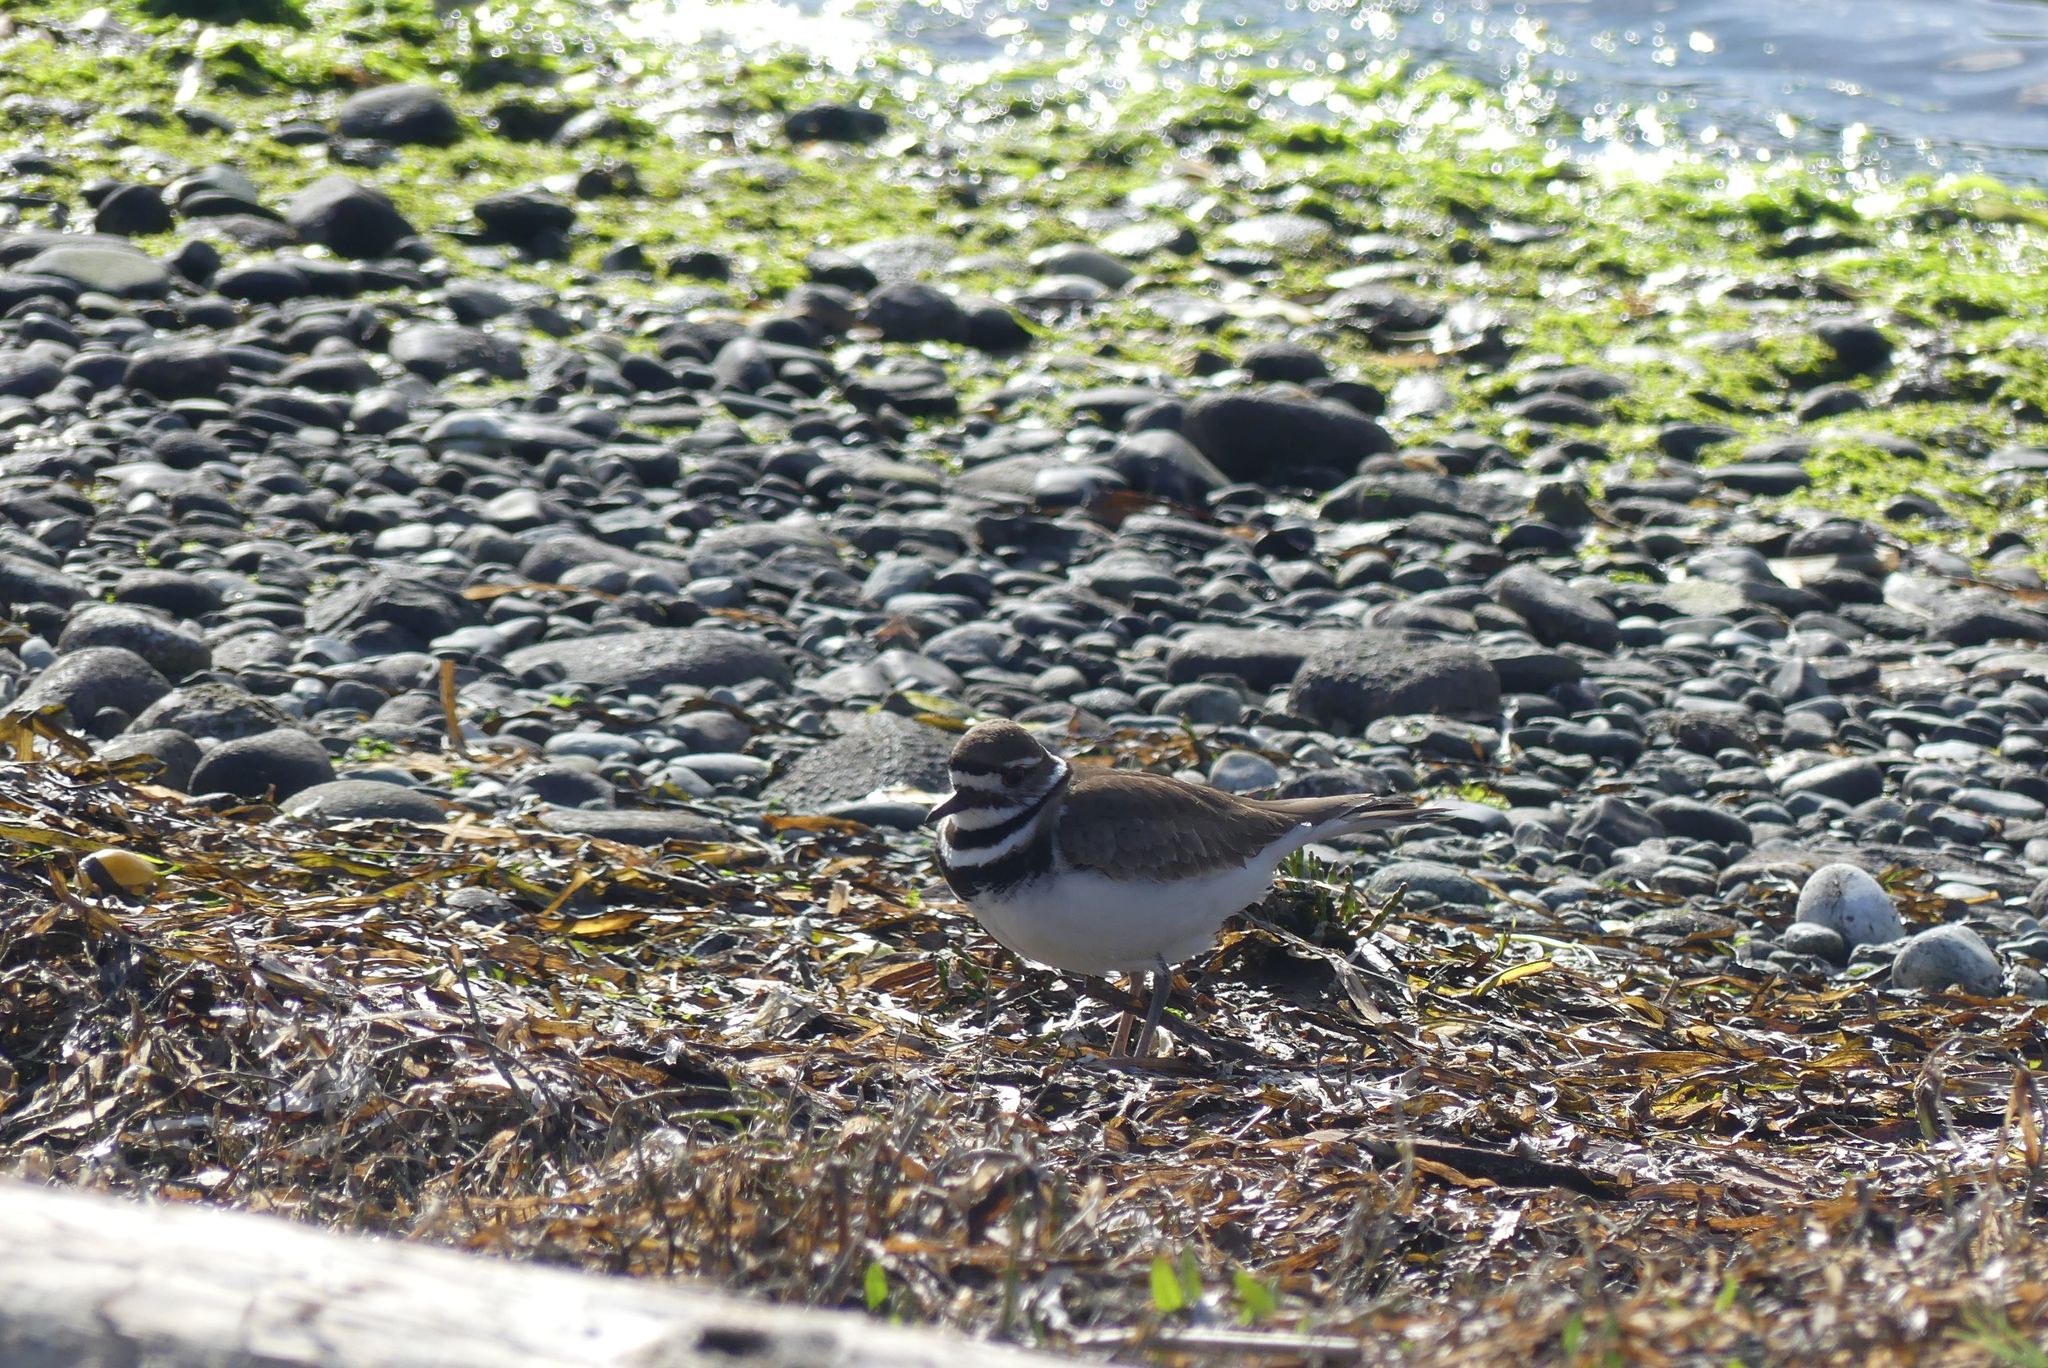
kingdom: Animalia
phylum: Chordata
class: Aves
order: Charadriiformes
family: Charadriidae
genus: Charadrius
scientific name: Charadrius vociferus
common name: Killdeer
